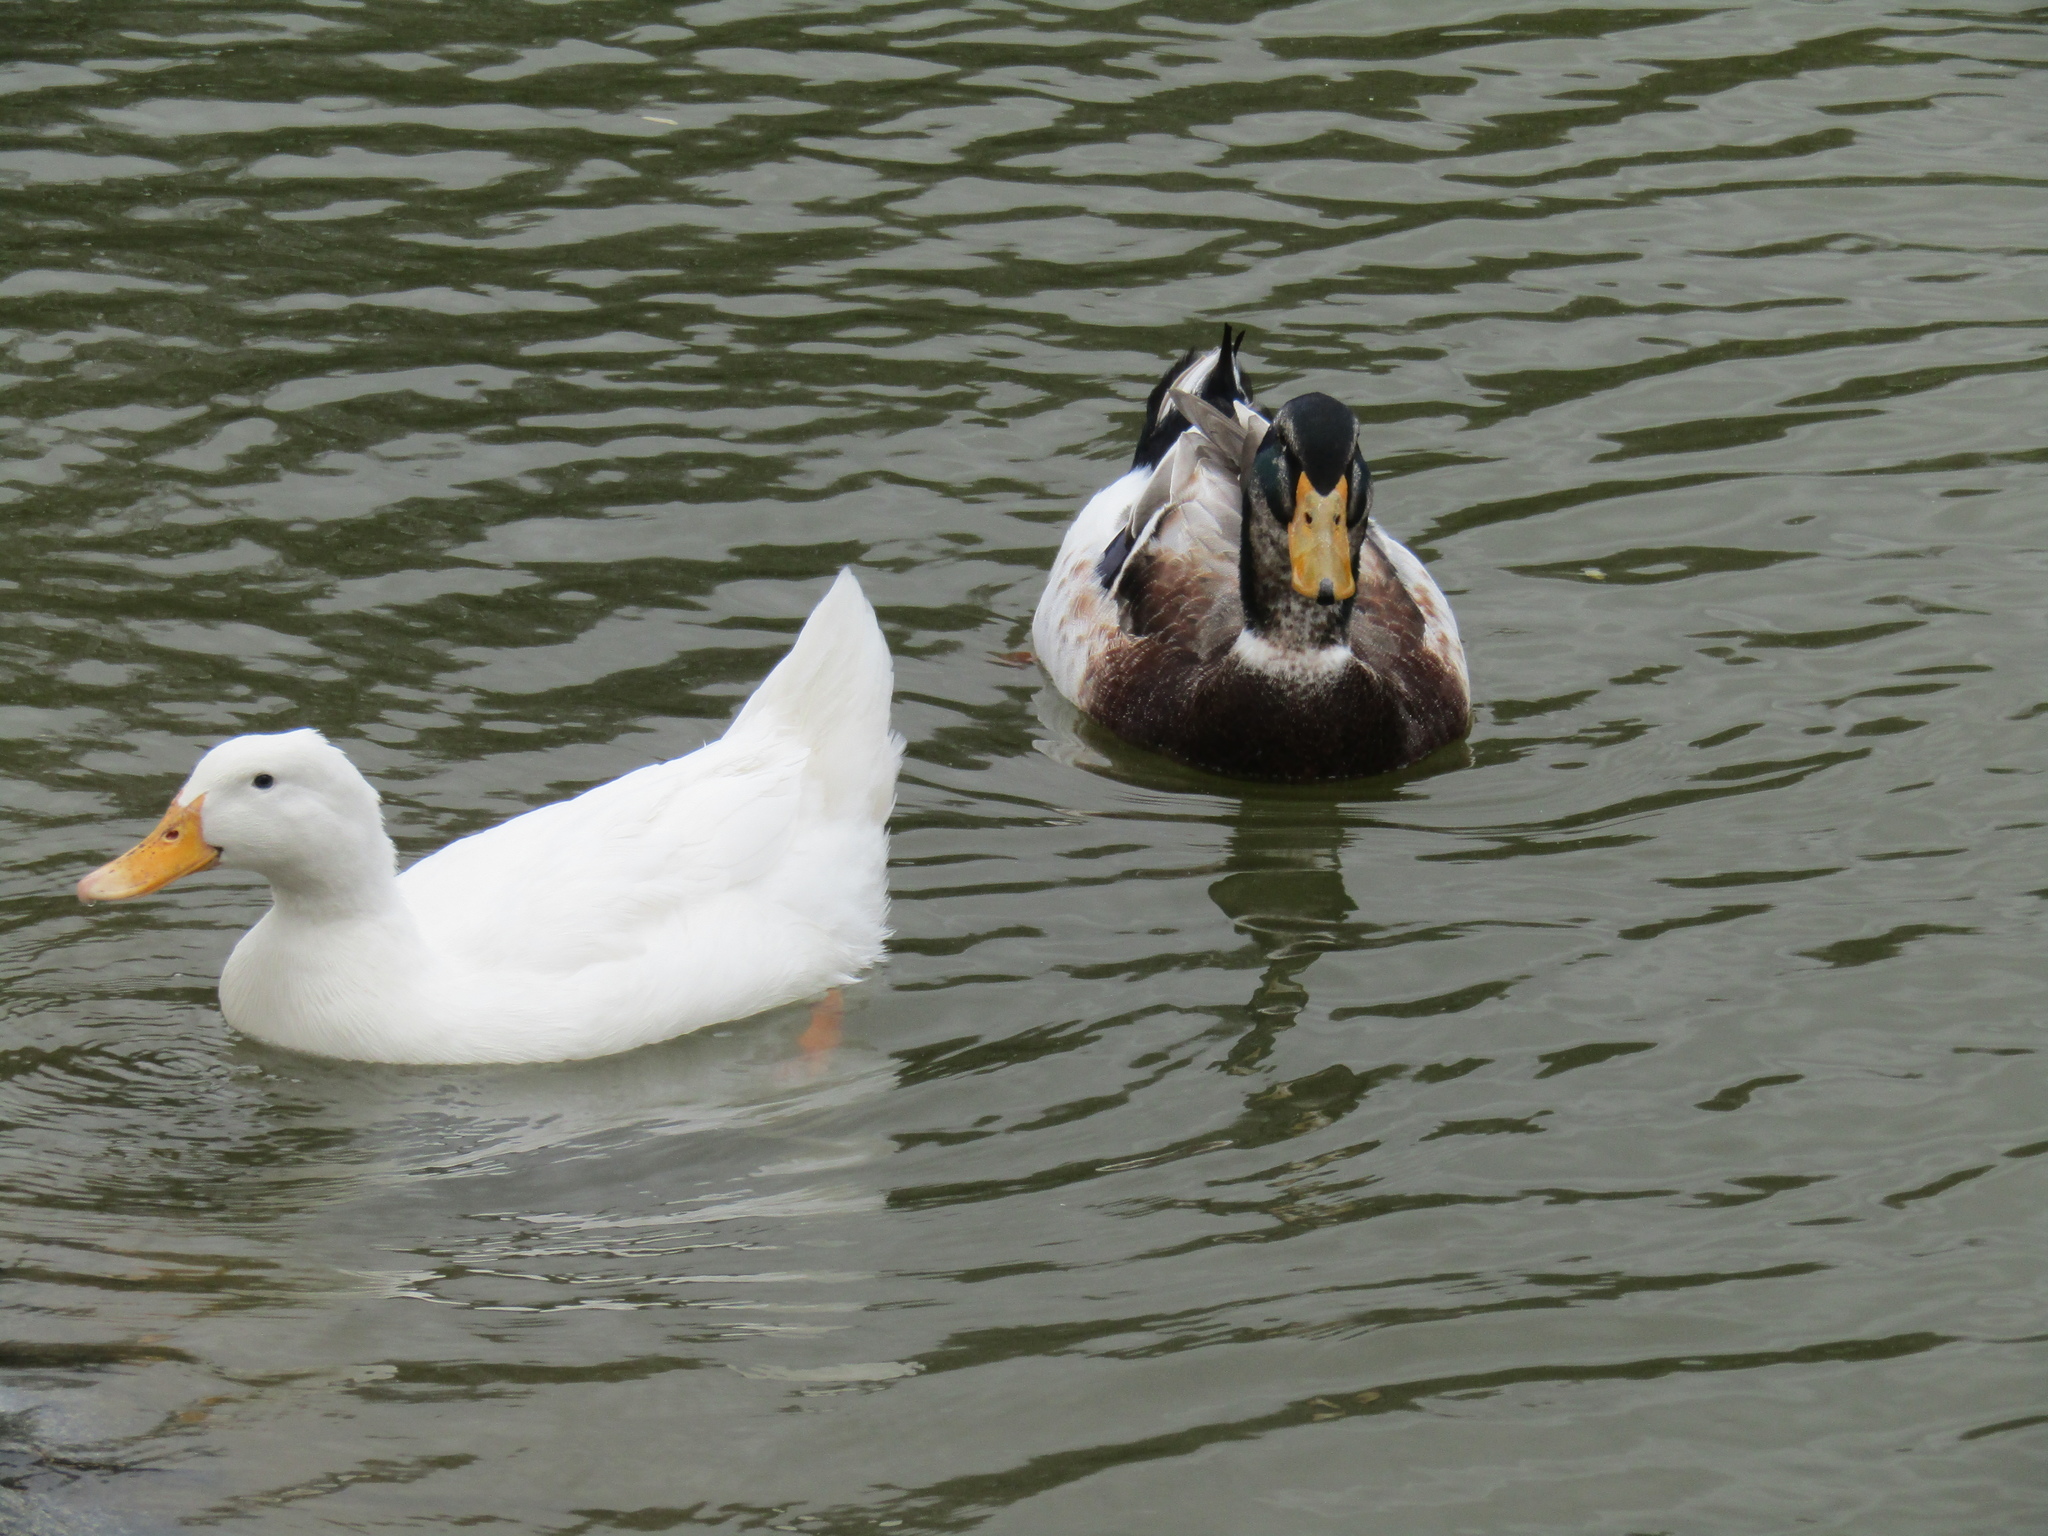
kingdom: Animalia
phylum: Chordata
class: Aves
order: Anseriformes
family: Anatidae
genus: Anas
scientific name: Anas platyrhynchos
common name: Mallard
